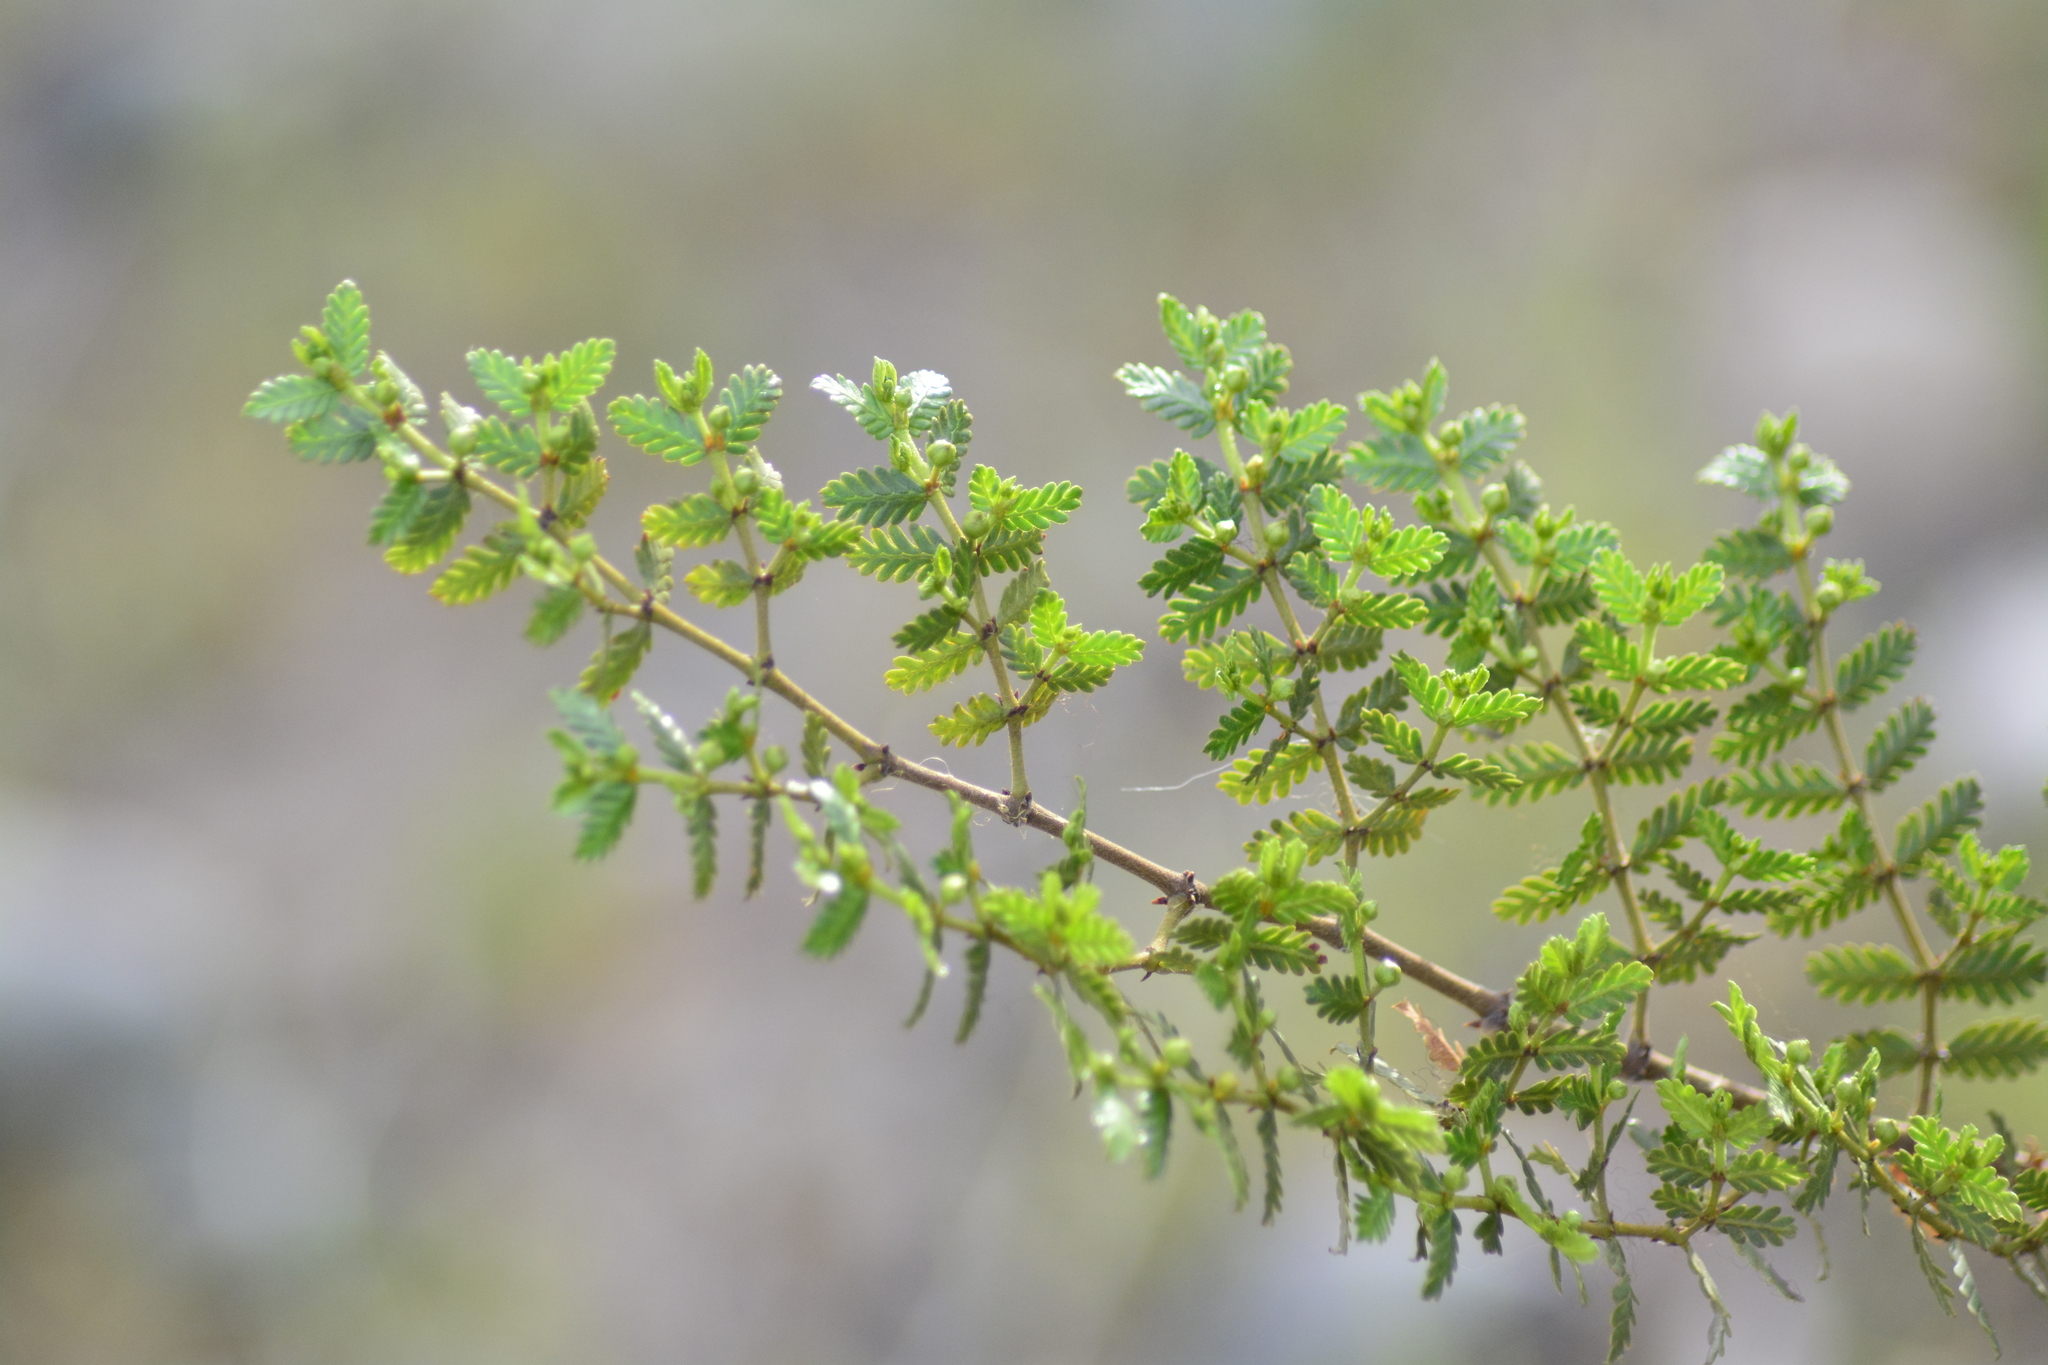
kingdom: Plantae
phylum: Tracheophyta
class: Magnoliopsida
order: Zygophyllales
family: Zygophyllaceae
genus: Larrea
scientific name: Larrea nitida
